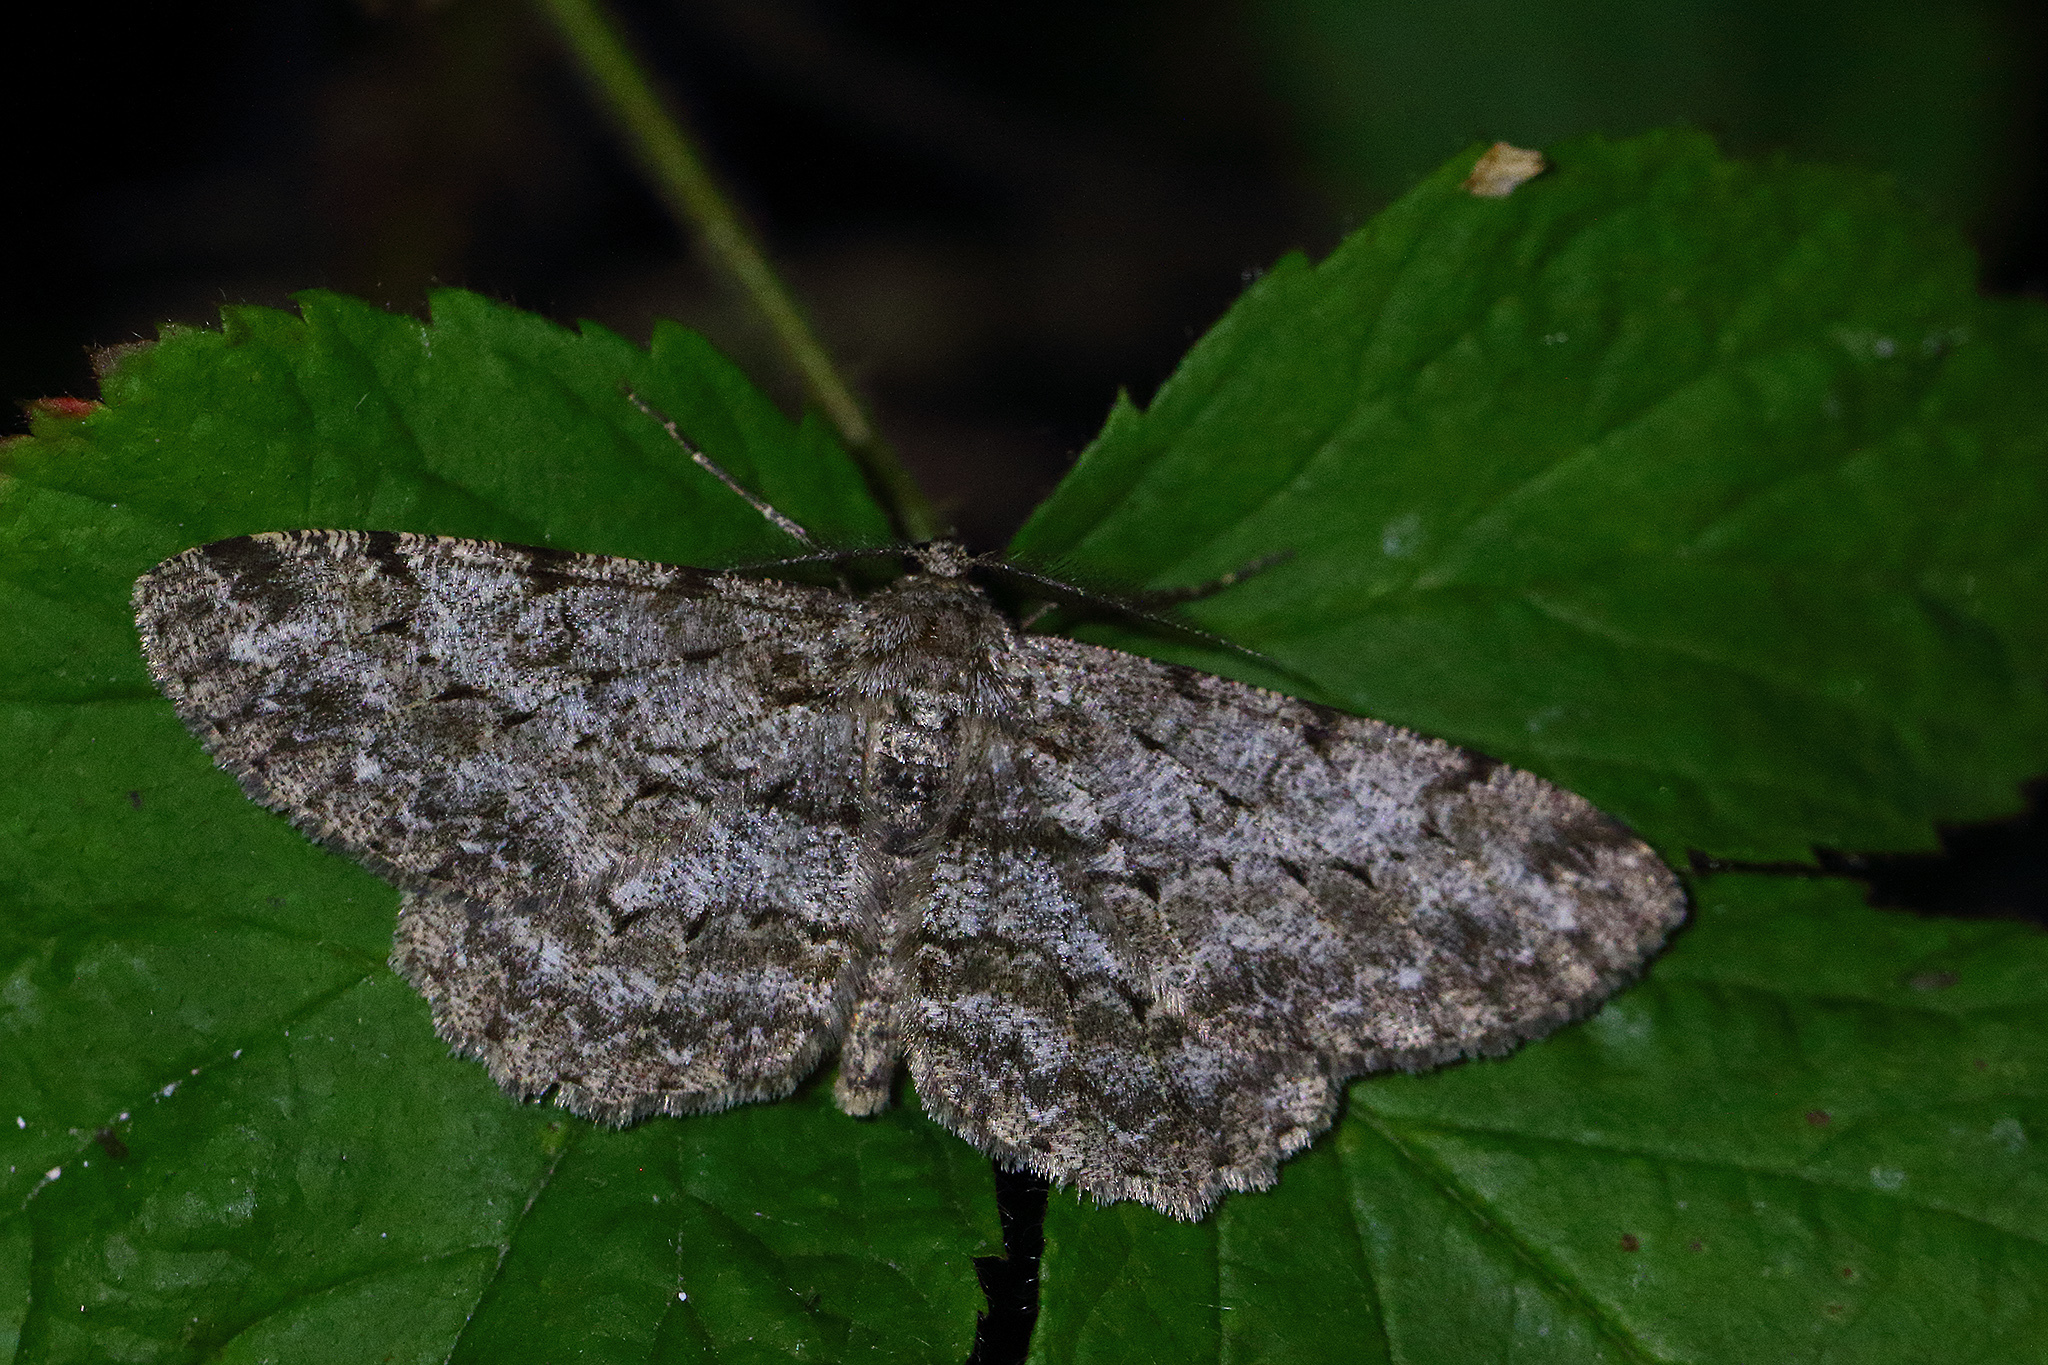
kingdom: Animalia
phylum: Arthropoda
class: Insecta
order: Lepidoptera
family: Geometridae
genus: Hypomecis
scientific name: Hypomecis punctinalis
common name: Pale oak beauty
